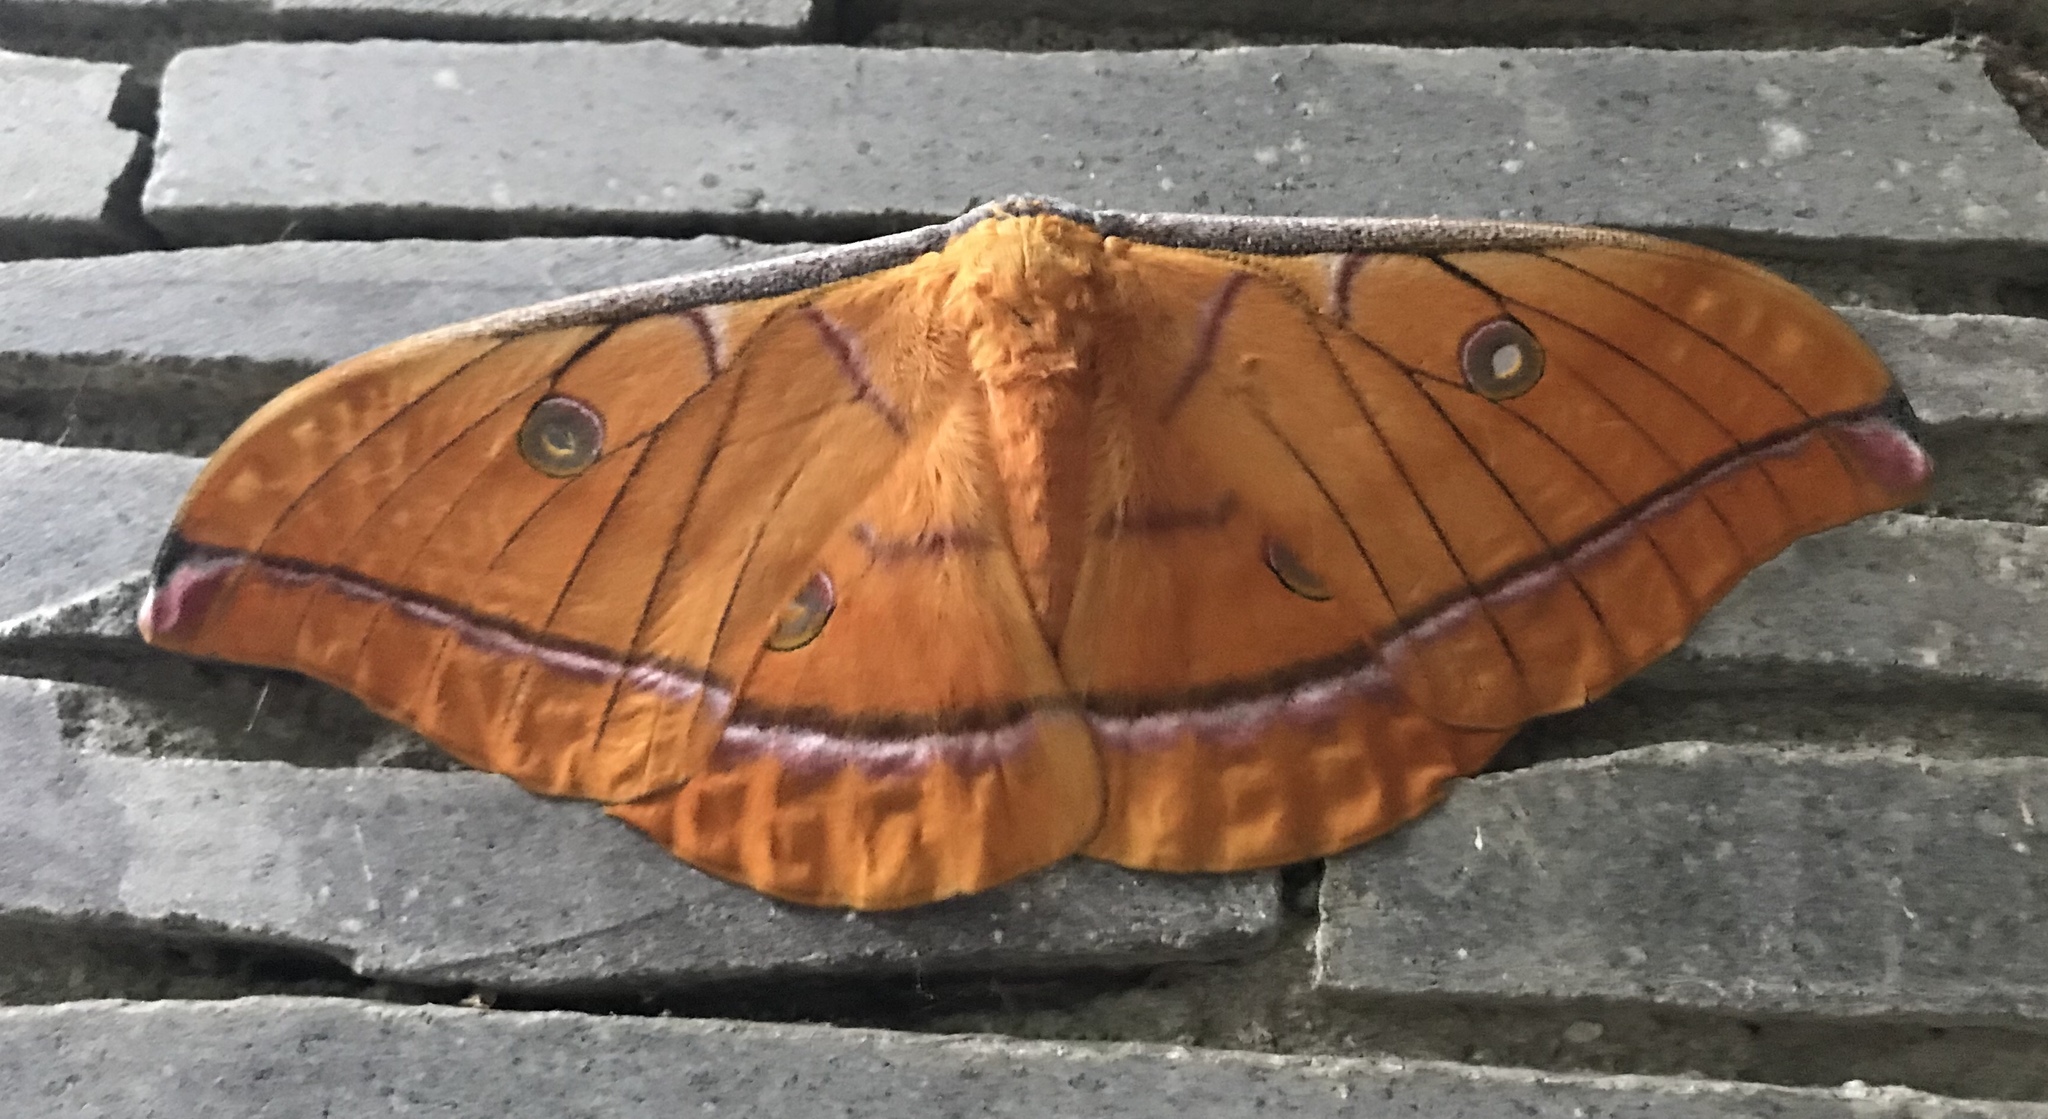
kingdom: Animalia
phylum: Arthropoda
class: Insecta
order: Lepidoptera
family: Saturniidae
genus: Antheraea
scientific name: Antheraea imperator
